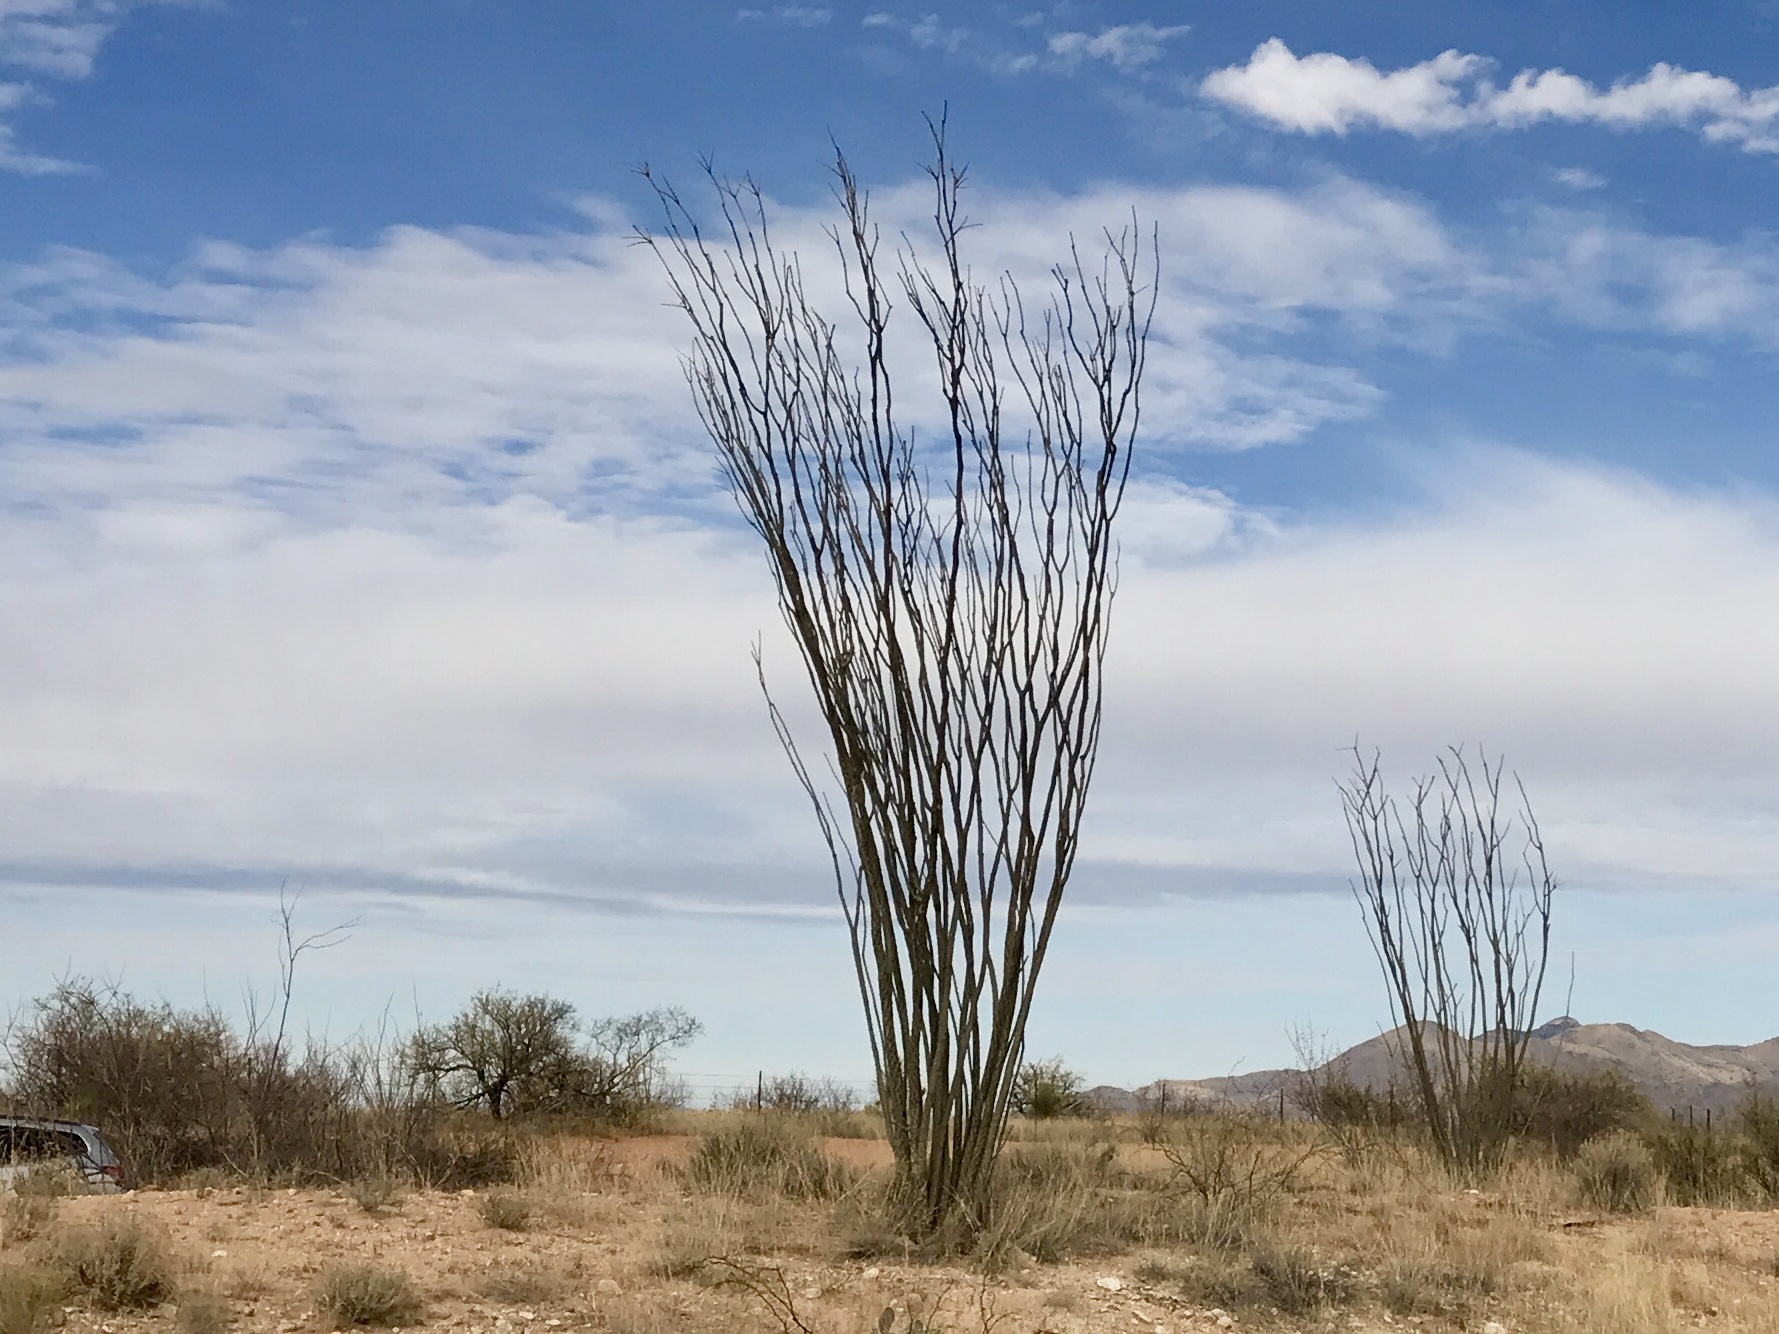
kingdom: Plantae
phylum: Tracheophyta
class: Magnoliopsida
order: Ericales
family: Fouquieriaceae
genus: Fouquieria
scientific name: Fouquieria splendens
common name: Vine-cactus
